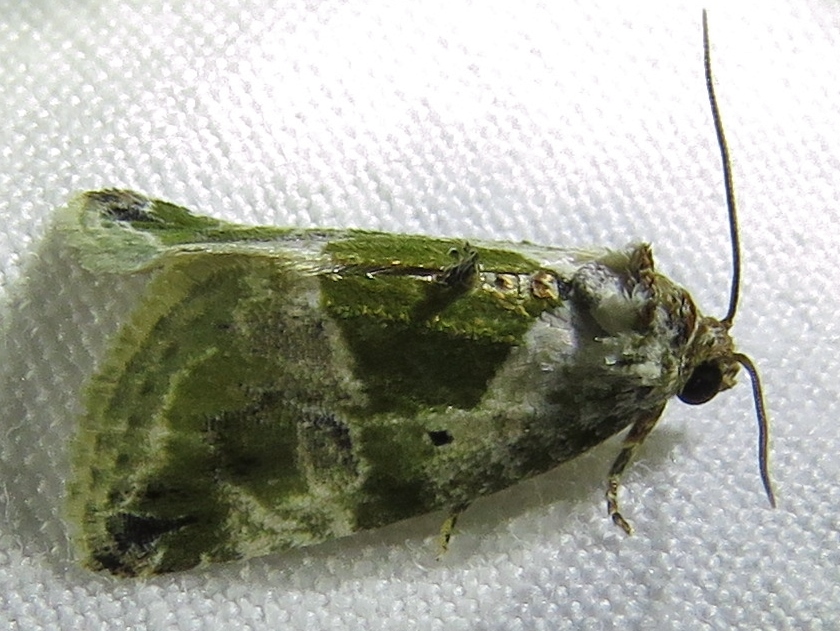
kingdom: Animalia
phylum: Arthropoda
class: Insecta
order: Lepidoptera
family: Noctuidae
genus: Maliattha
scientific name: Maliattha synochitis
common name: Black-dotted glyph
